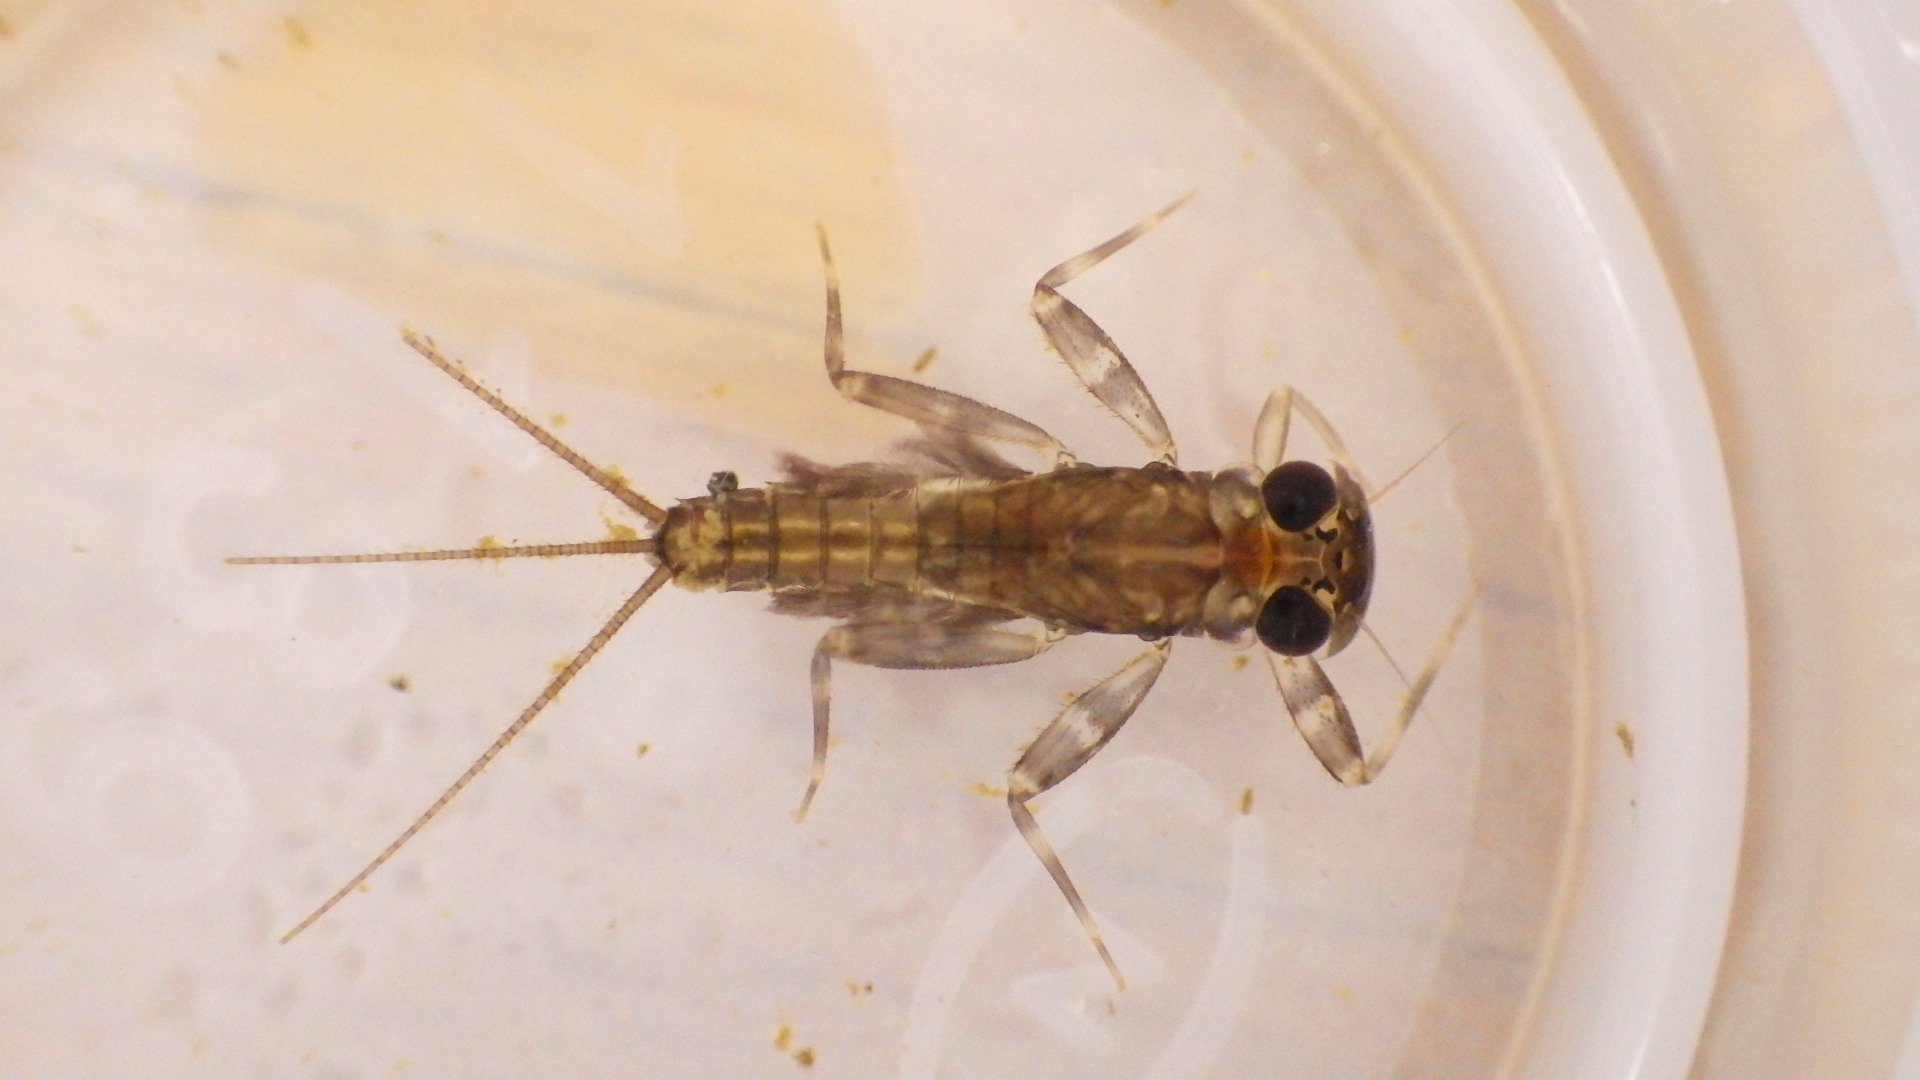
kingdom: Animalia
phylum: Arthropoda
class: Insecta
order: Ephemeroptera
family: Heptageniidae
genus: Stenacron
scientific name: Stenacron interpunctatum
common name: Orange cahill
